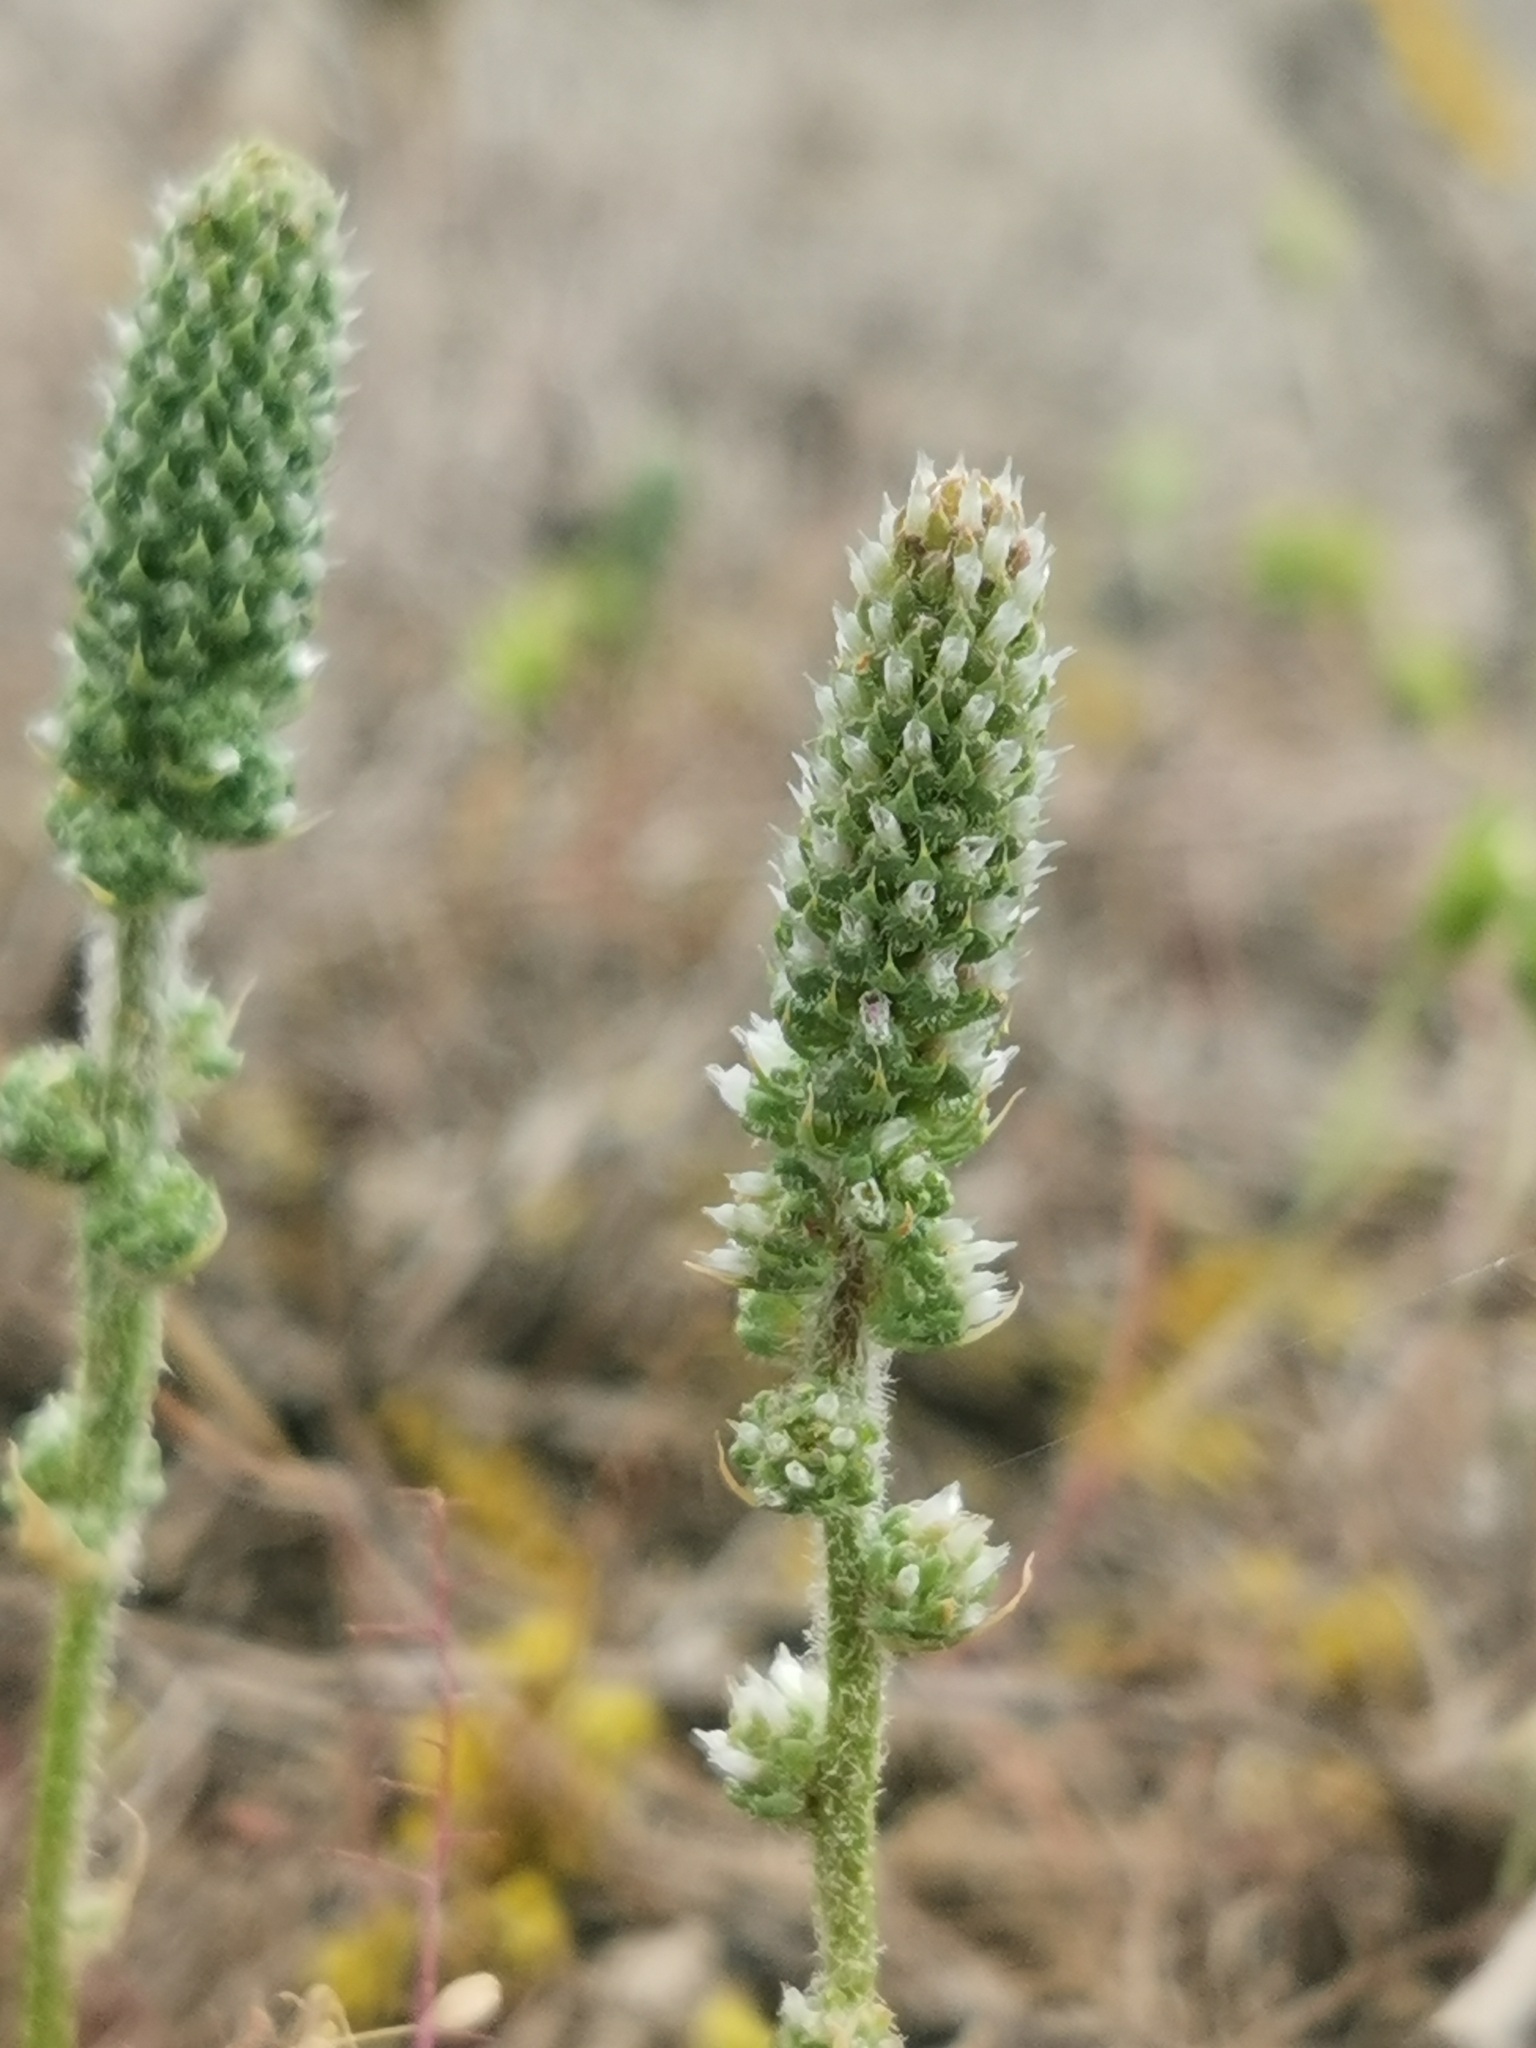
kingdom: Plantae
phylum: Tracheophyta
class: Magnoliopsida
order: Caryophyllales
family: Plumbaginaceae
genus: Psylliostachys
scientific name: Psylliostachys spicatus
